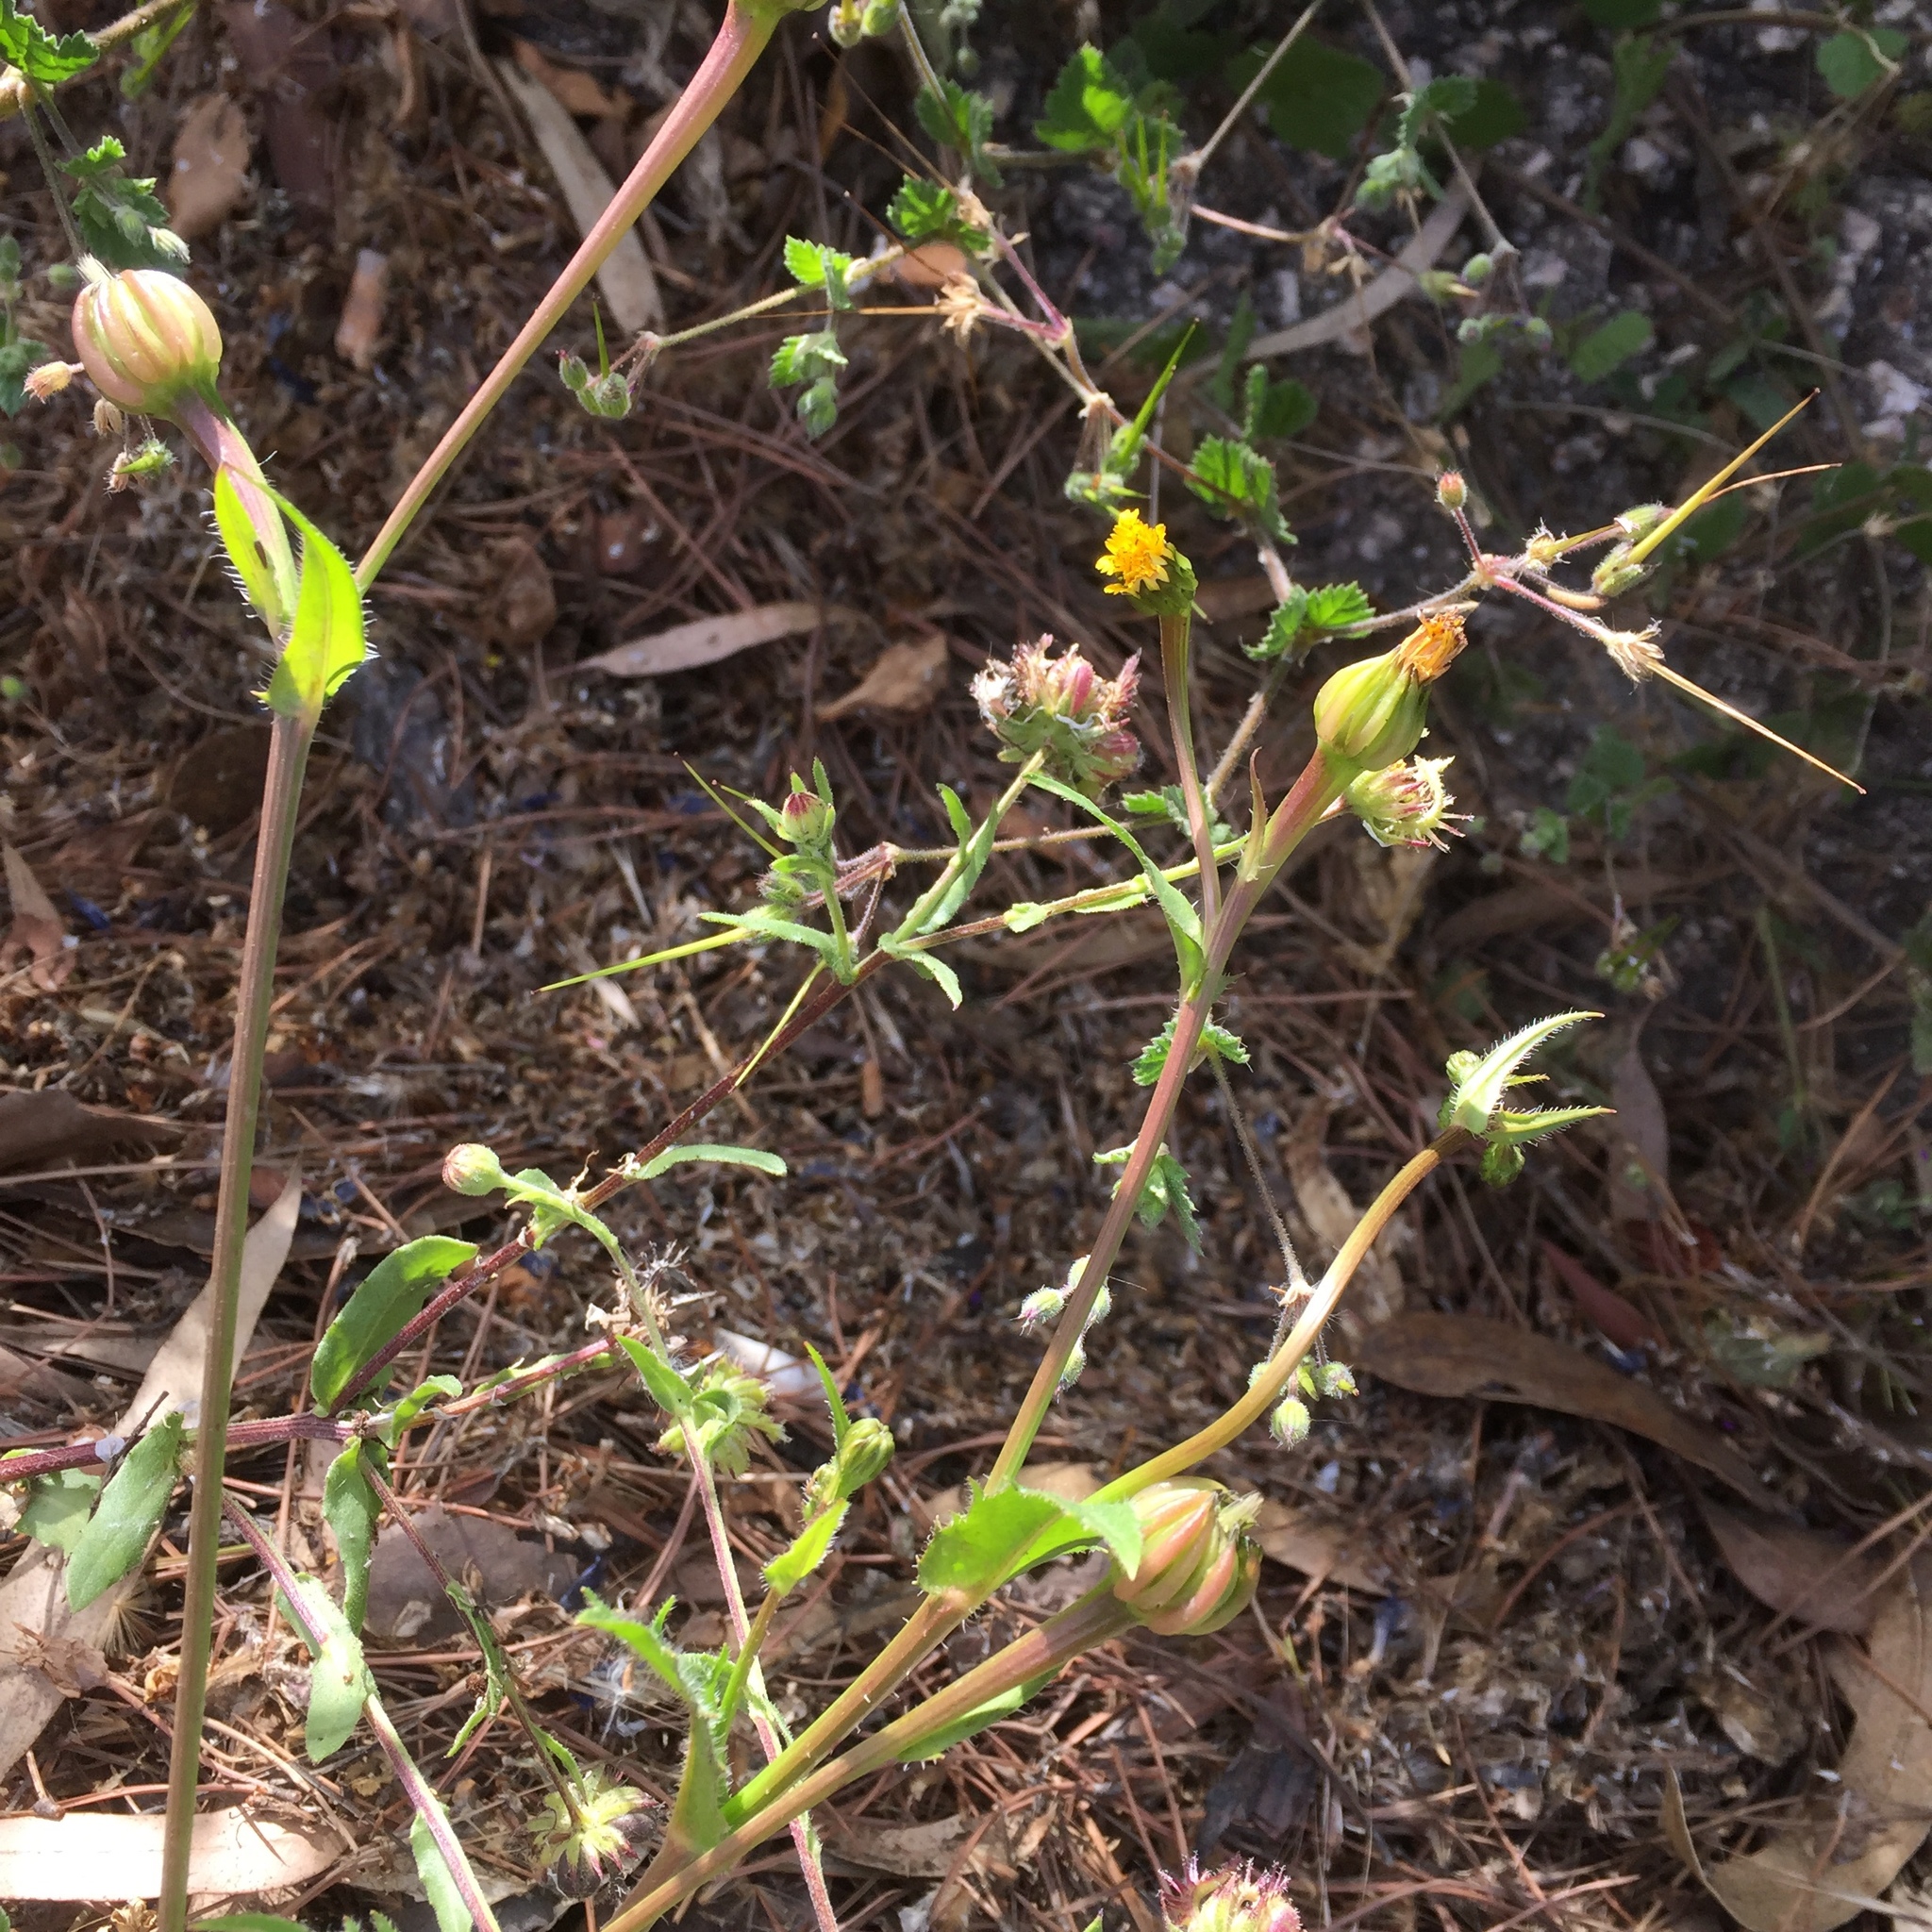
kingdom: Plantae
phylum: Tracheophyta
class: Magnoliopsida
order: Asterales
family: Asteraceae
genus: Hedypnois
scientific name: Hedypnois rhagadioloides
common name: Cretan weed
